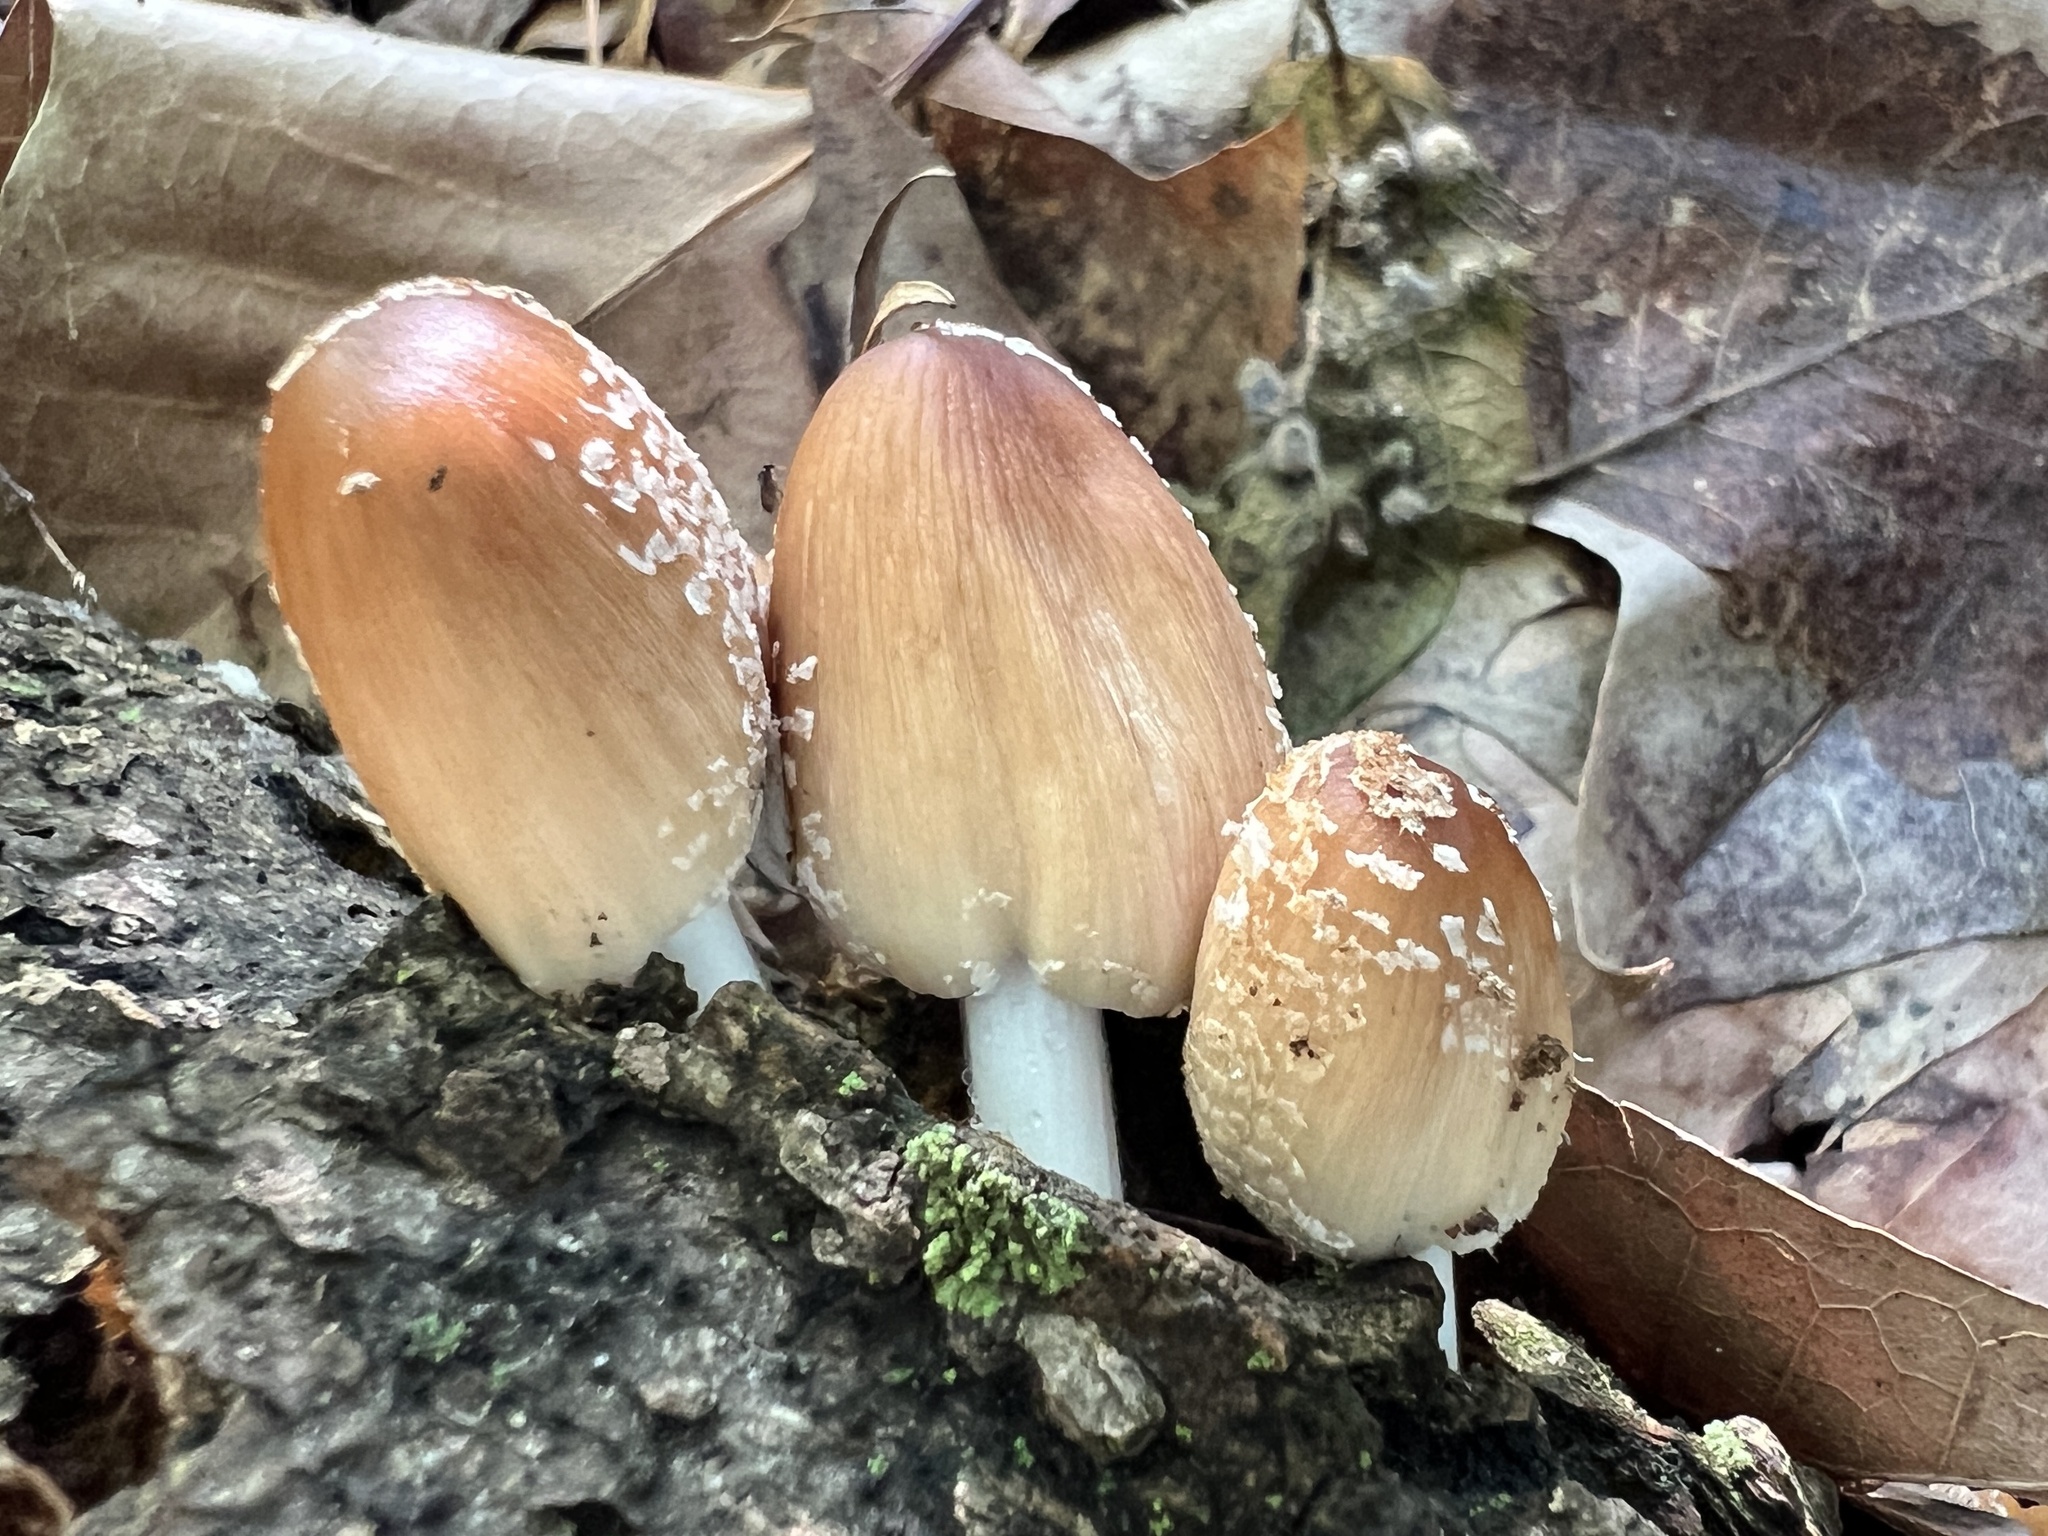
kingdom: Fungi
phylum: Basidiomycota
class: Agaricomycetes
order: Agaricales
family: Psathyrellaceae
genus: Coprinellus
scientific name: Coprinellus domesticus
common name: Firerug inkcap
